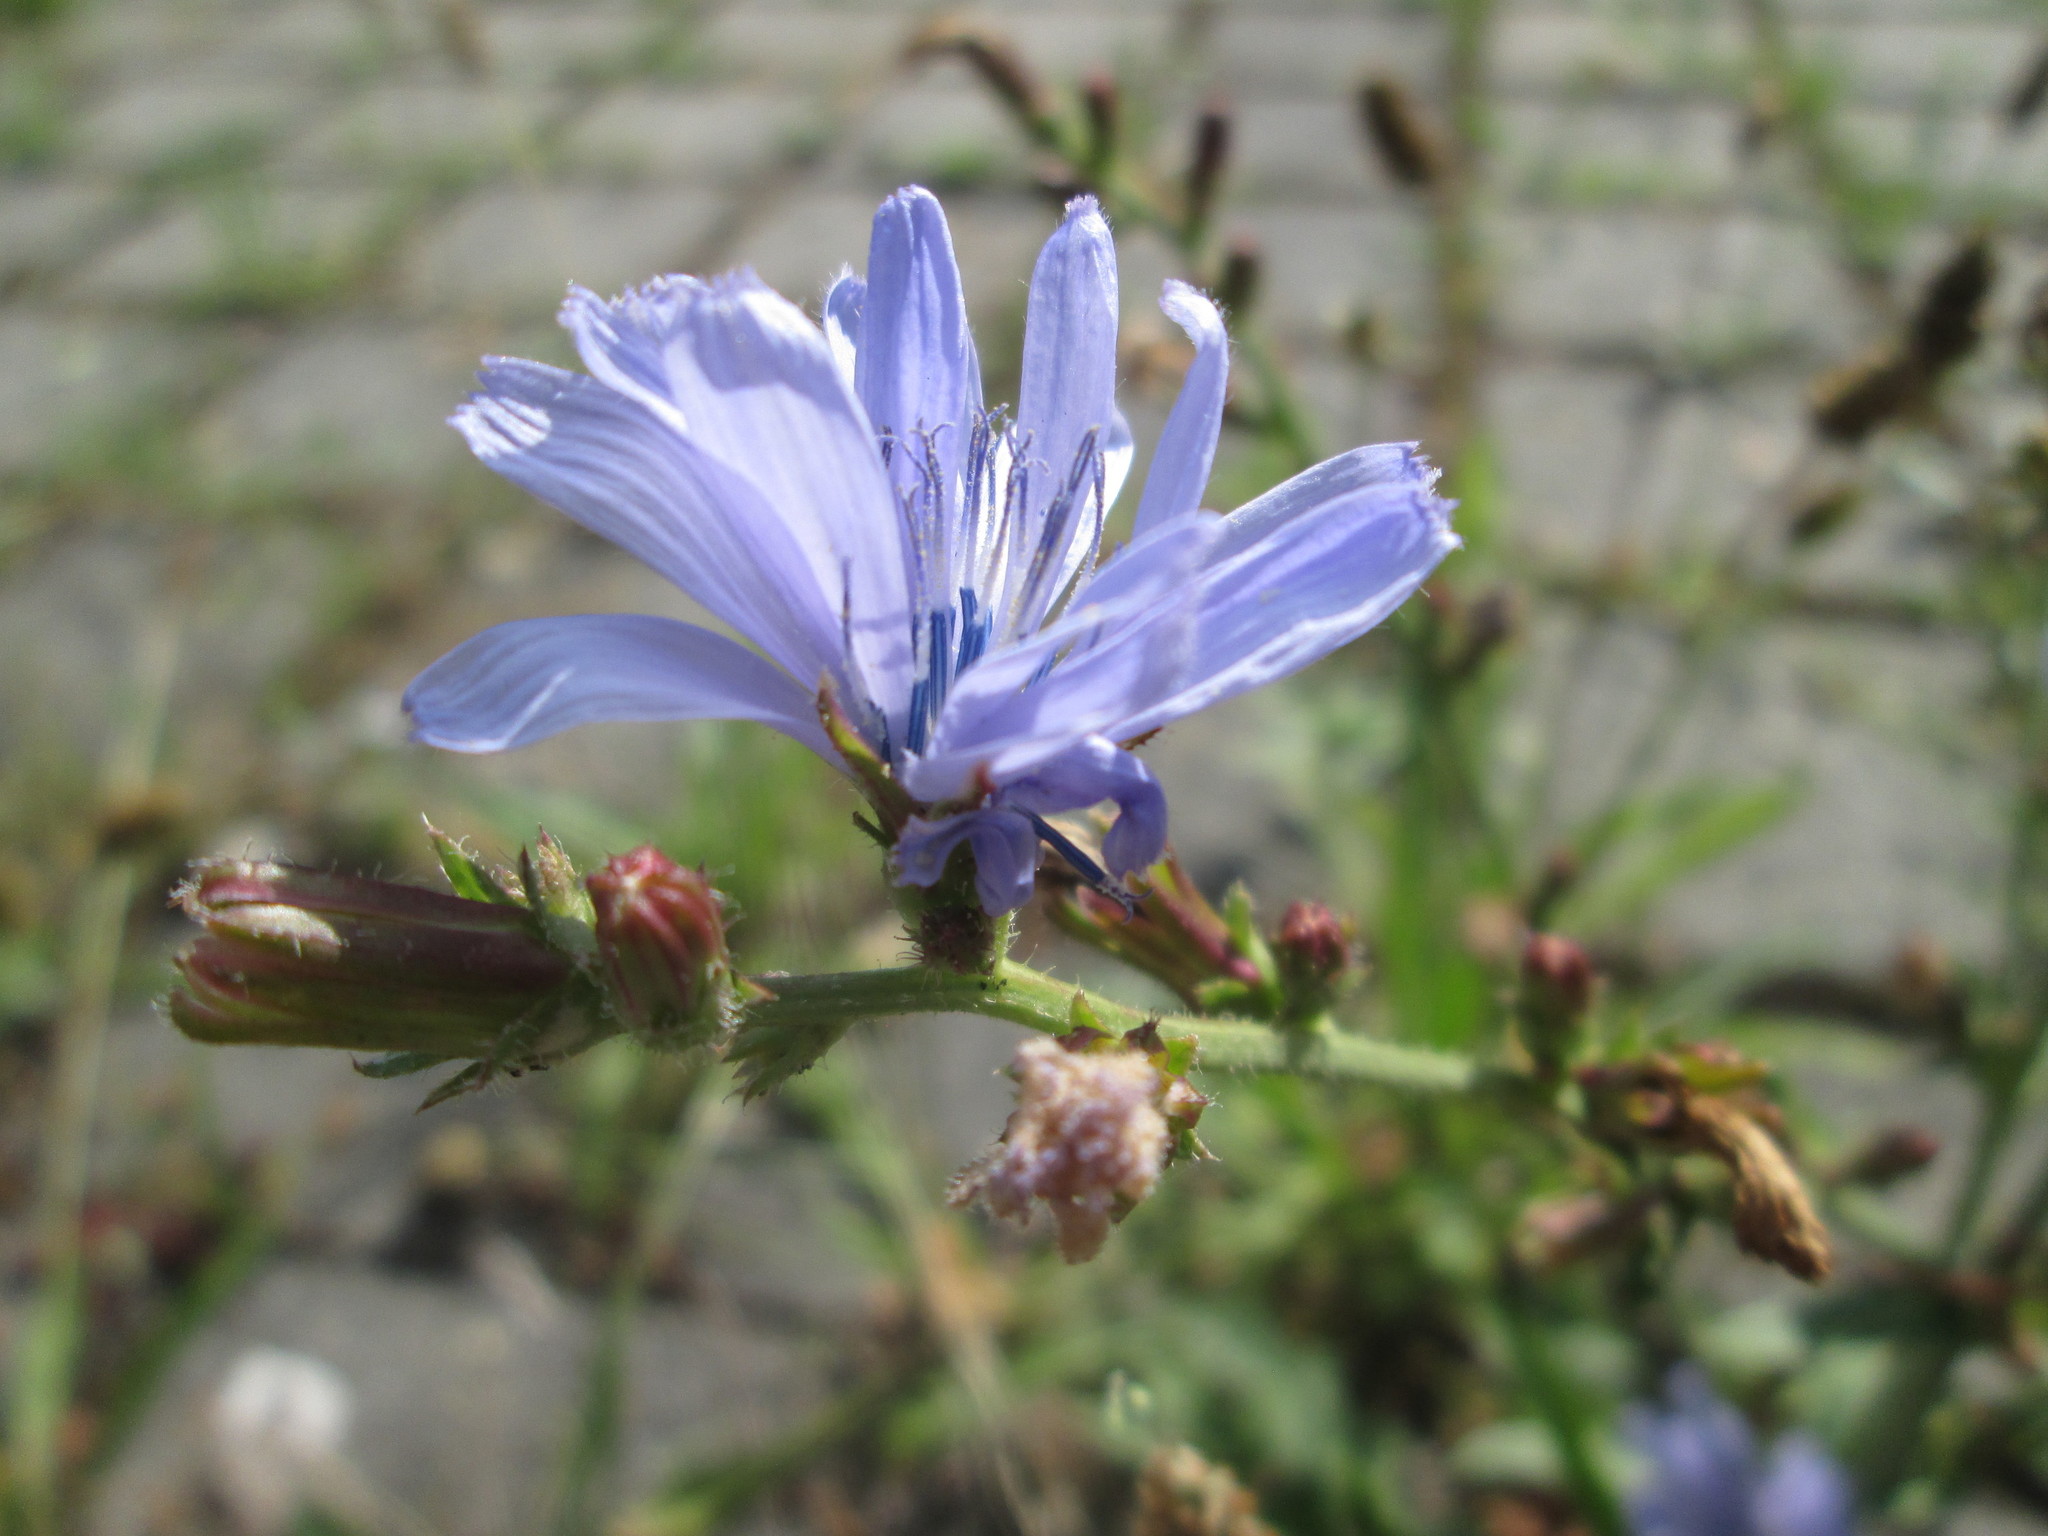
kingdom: Plantae
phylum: Tracheophyta
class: Magnoliopsida
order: Asterales
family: Asteraceae
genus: Cichorium
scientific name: Cichorium intybus
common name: Chicory
